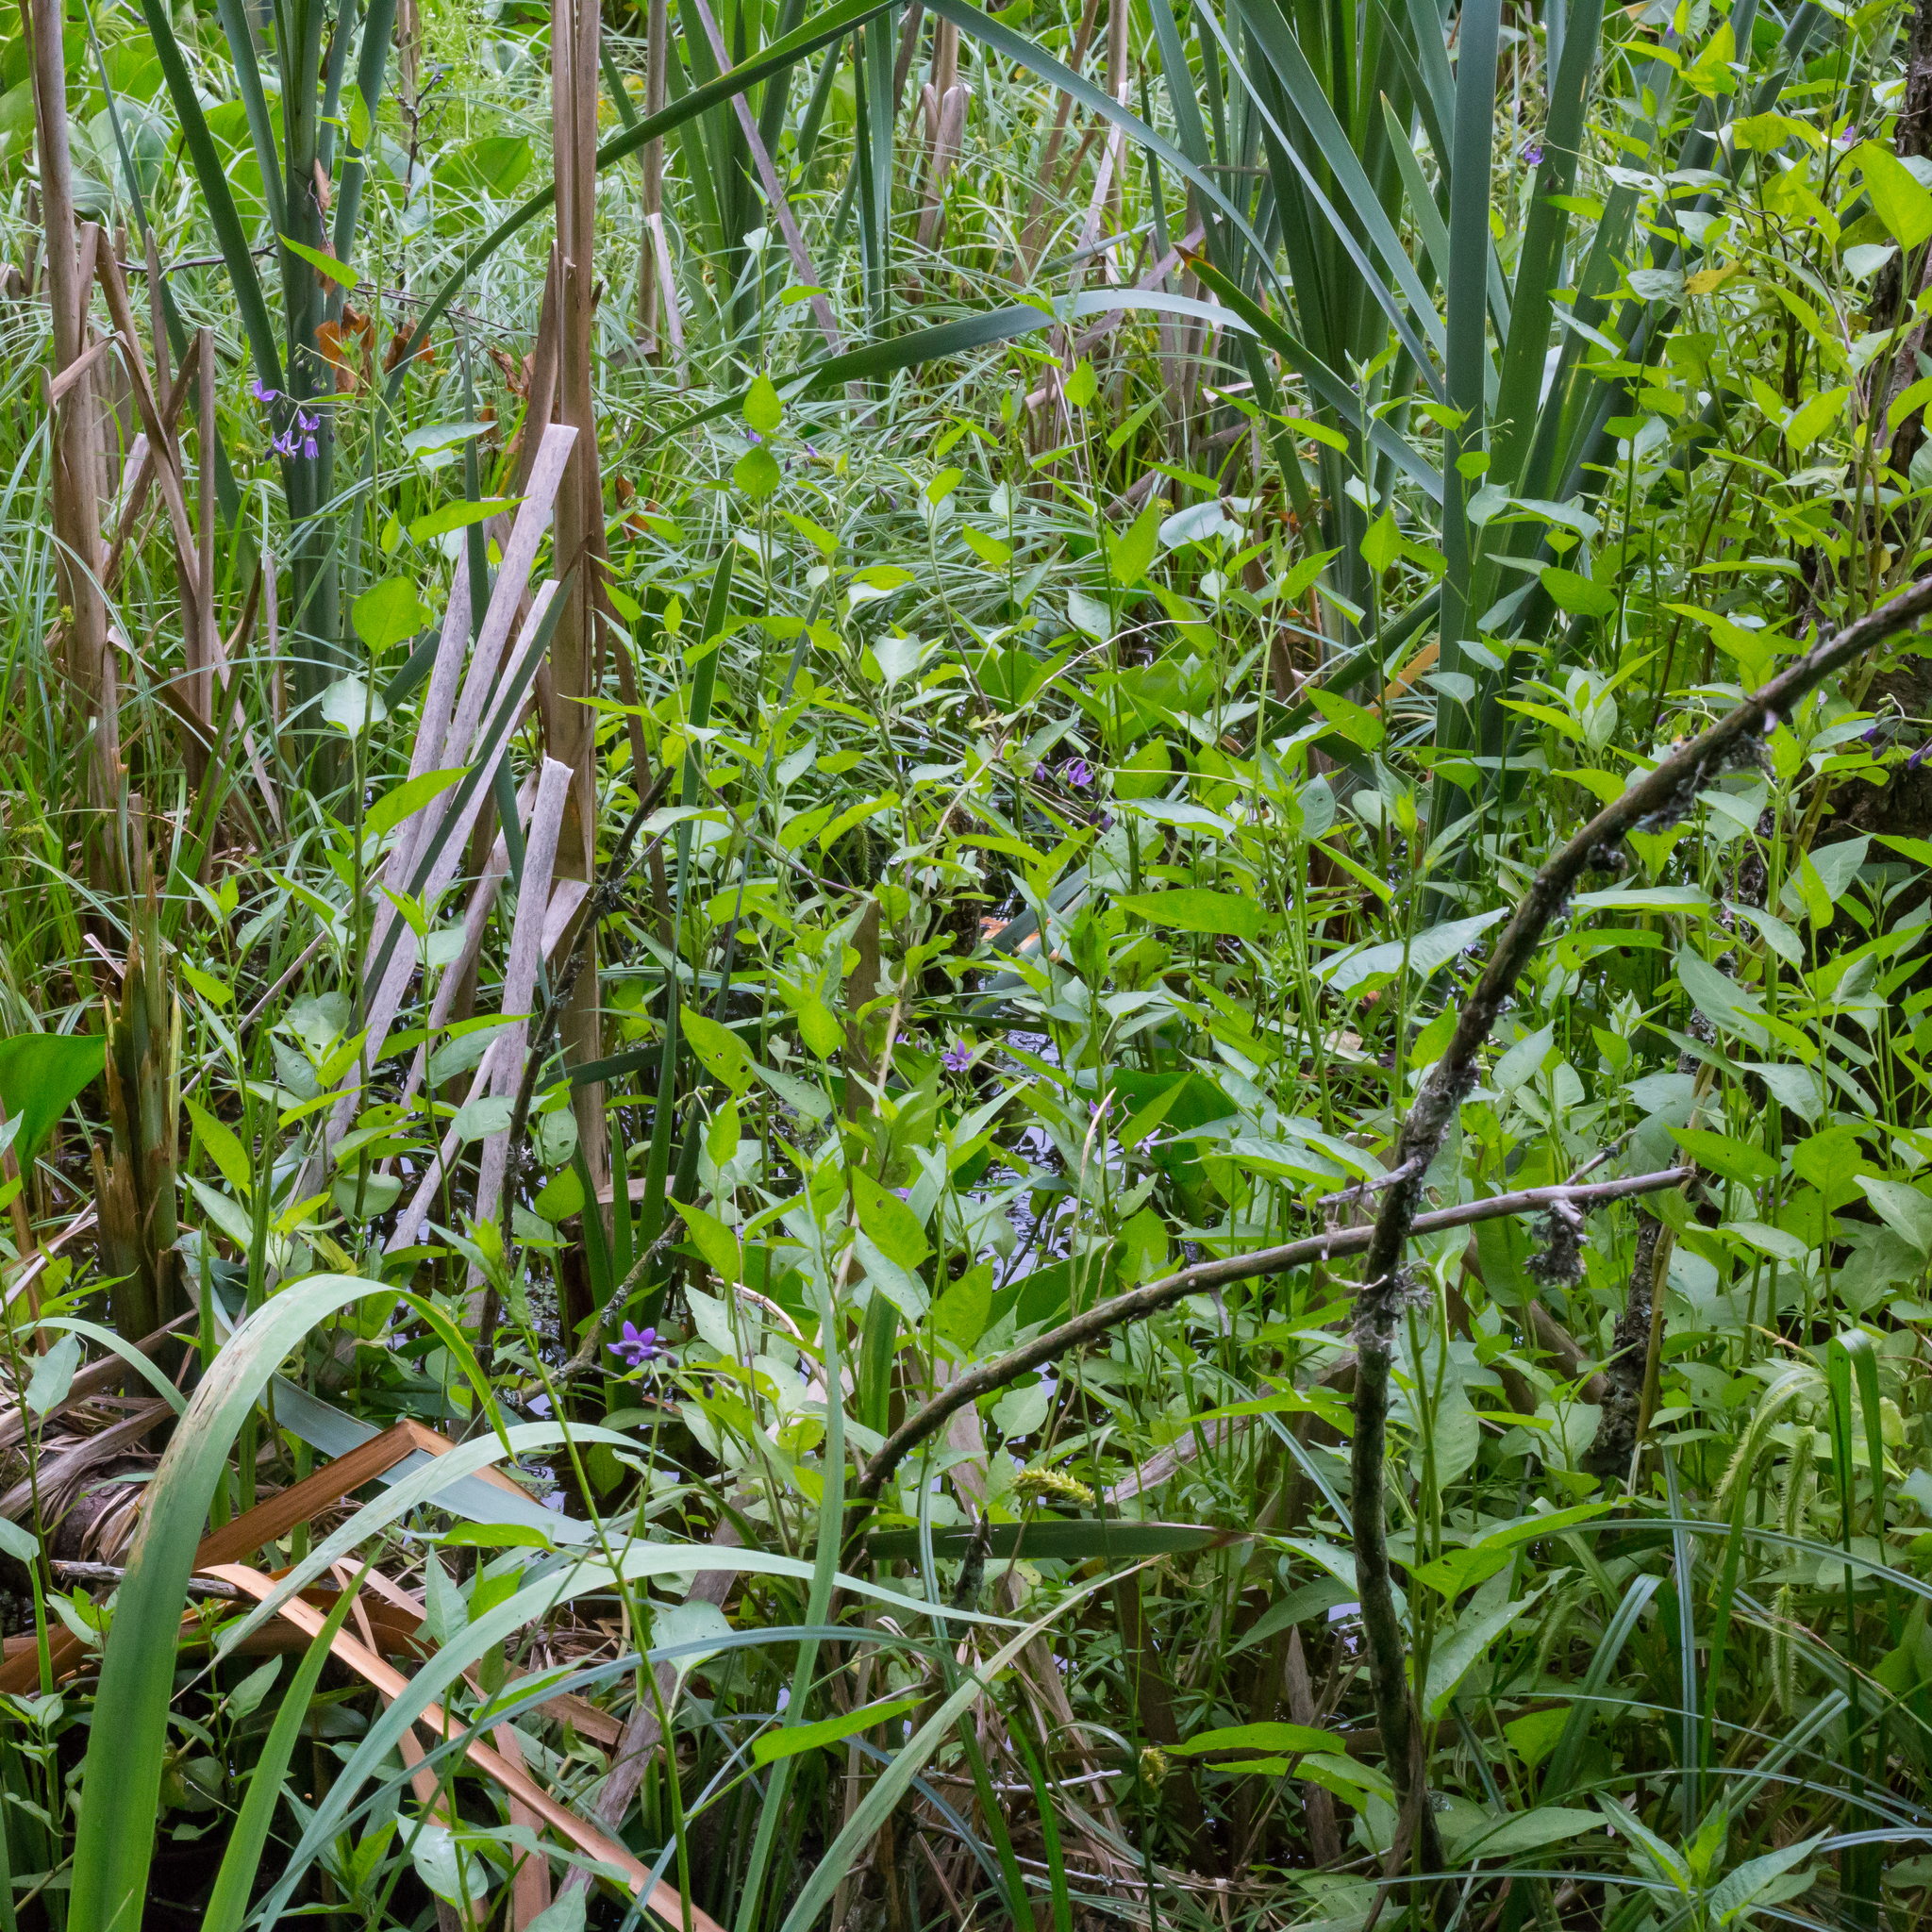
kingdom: Plantae
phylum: Tracheophyta
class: Magnoliopsida
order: Solanales
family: Solanaceae
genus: Solanum
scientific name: Solanum dulcamara
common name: Climbing nightshade
